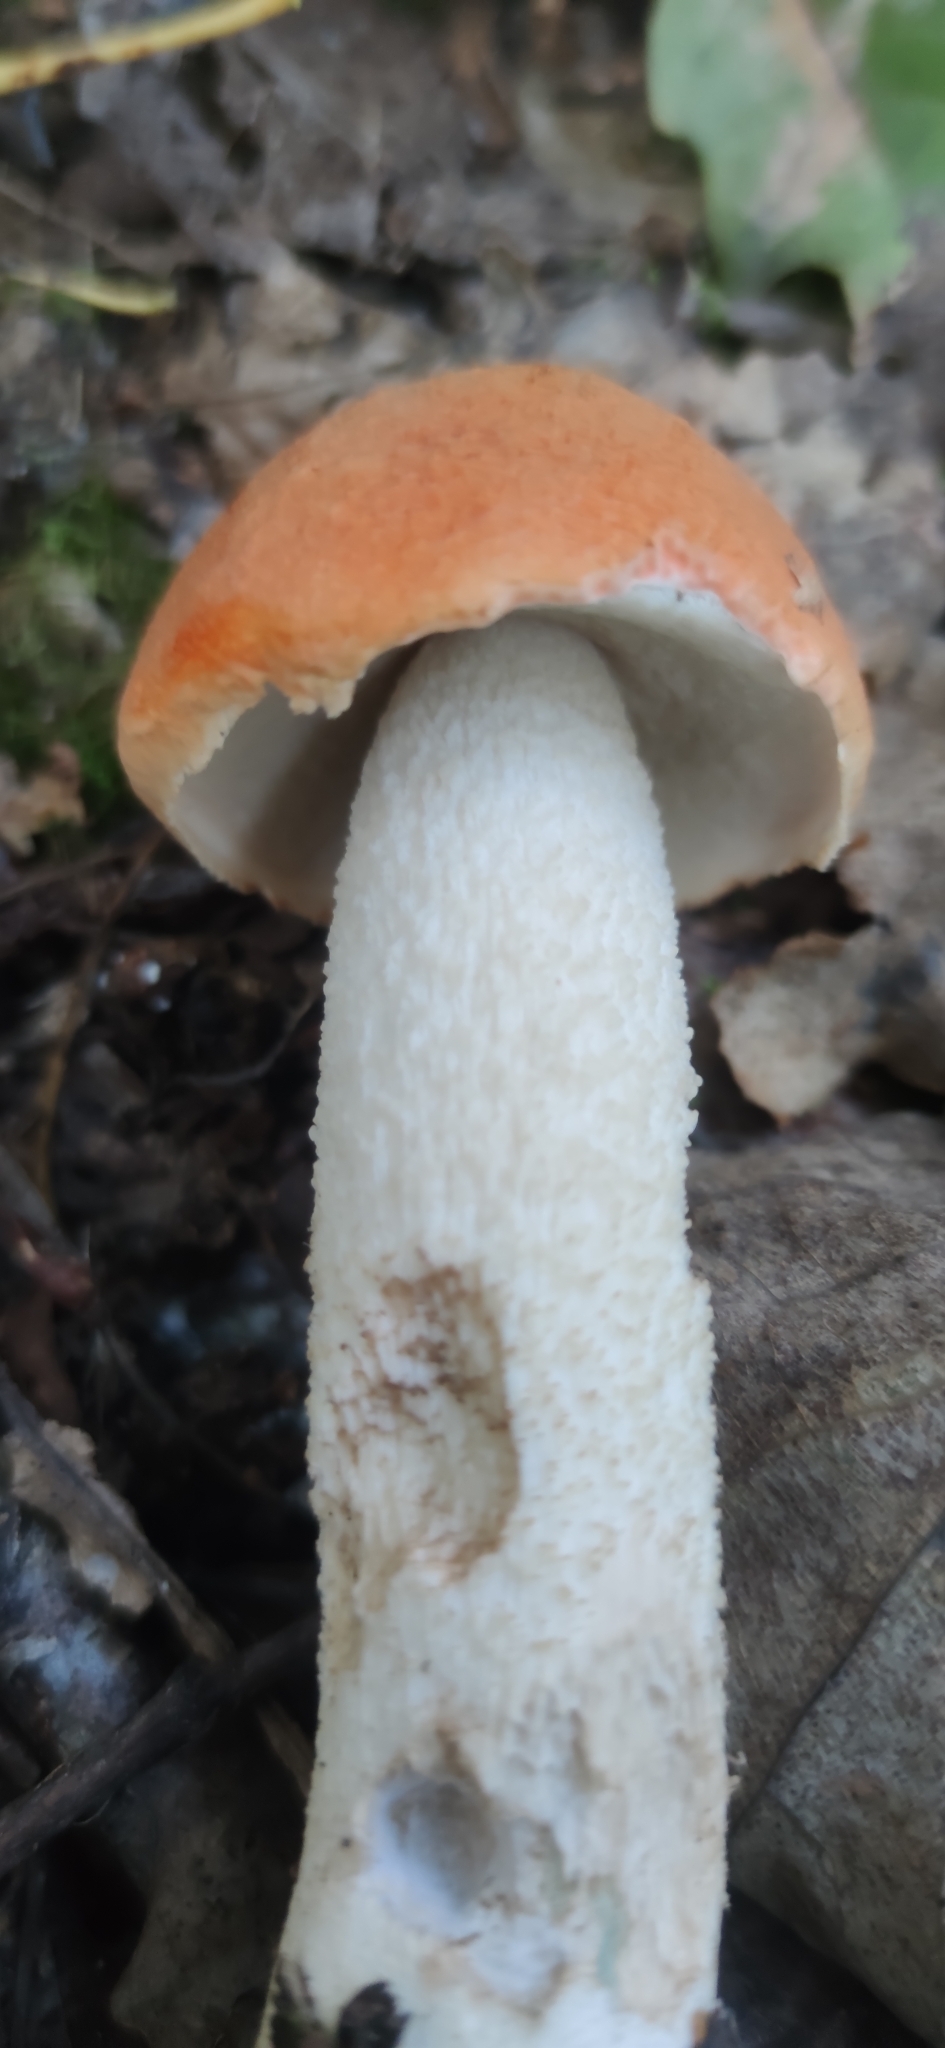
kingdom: Fungi
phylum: Basidiomycota
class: Agaricomycetes
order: Boletales
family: Boletaceae
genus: Leccinum
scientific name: Leccinum albostipitatum
